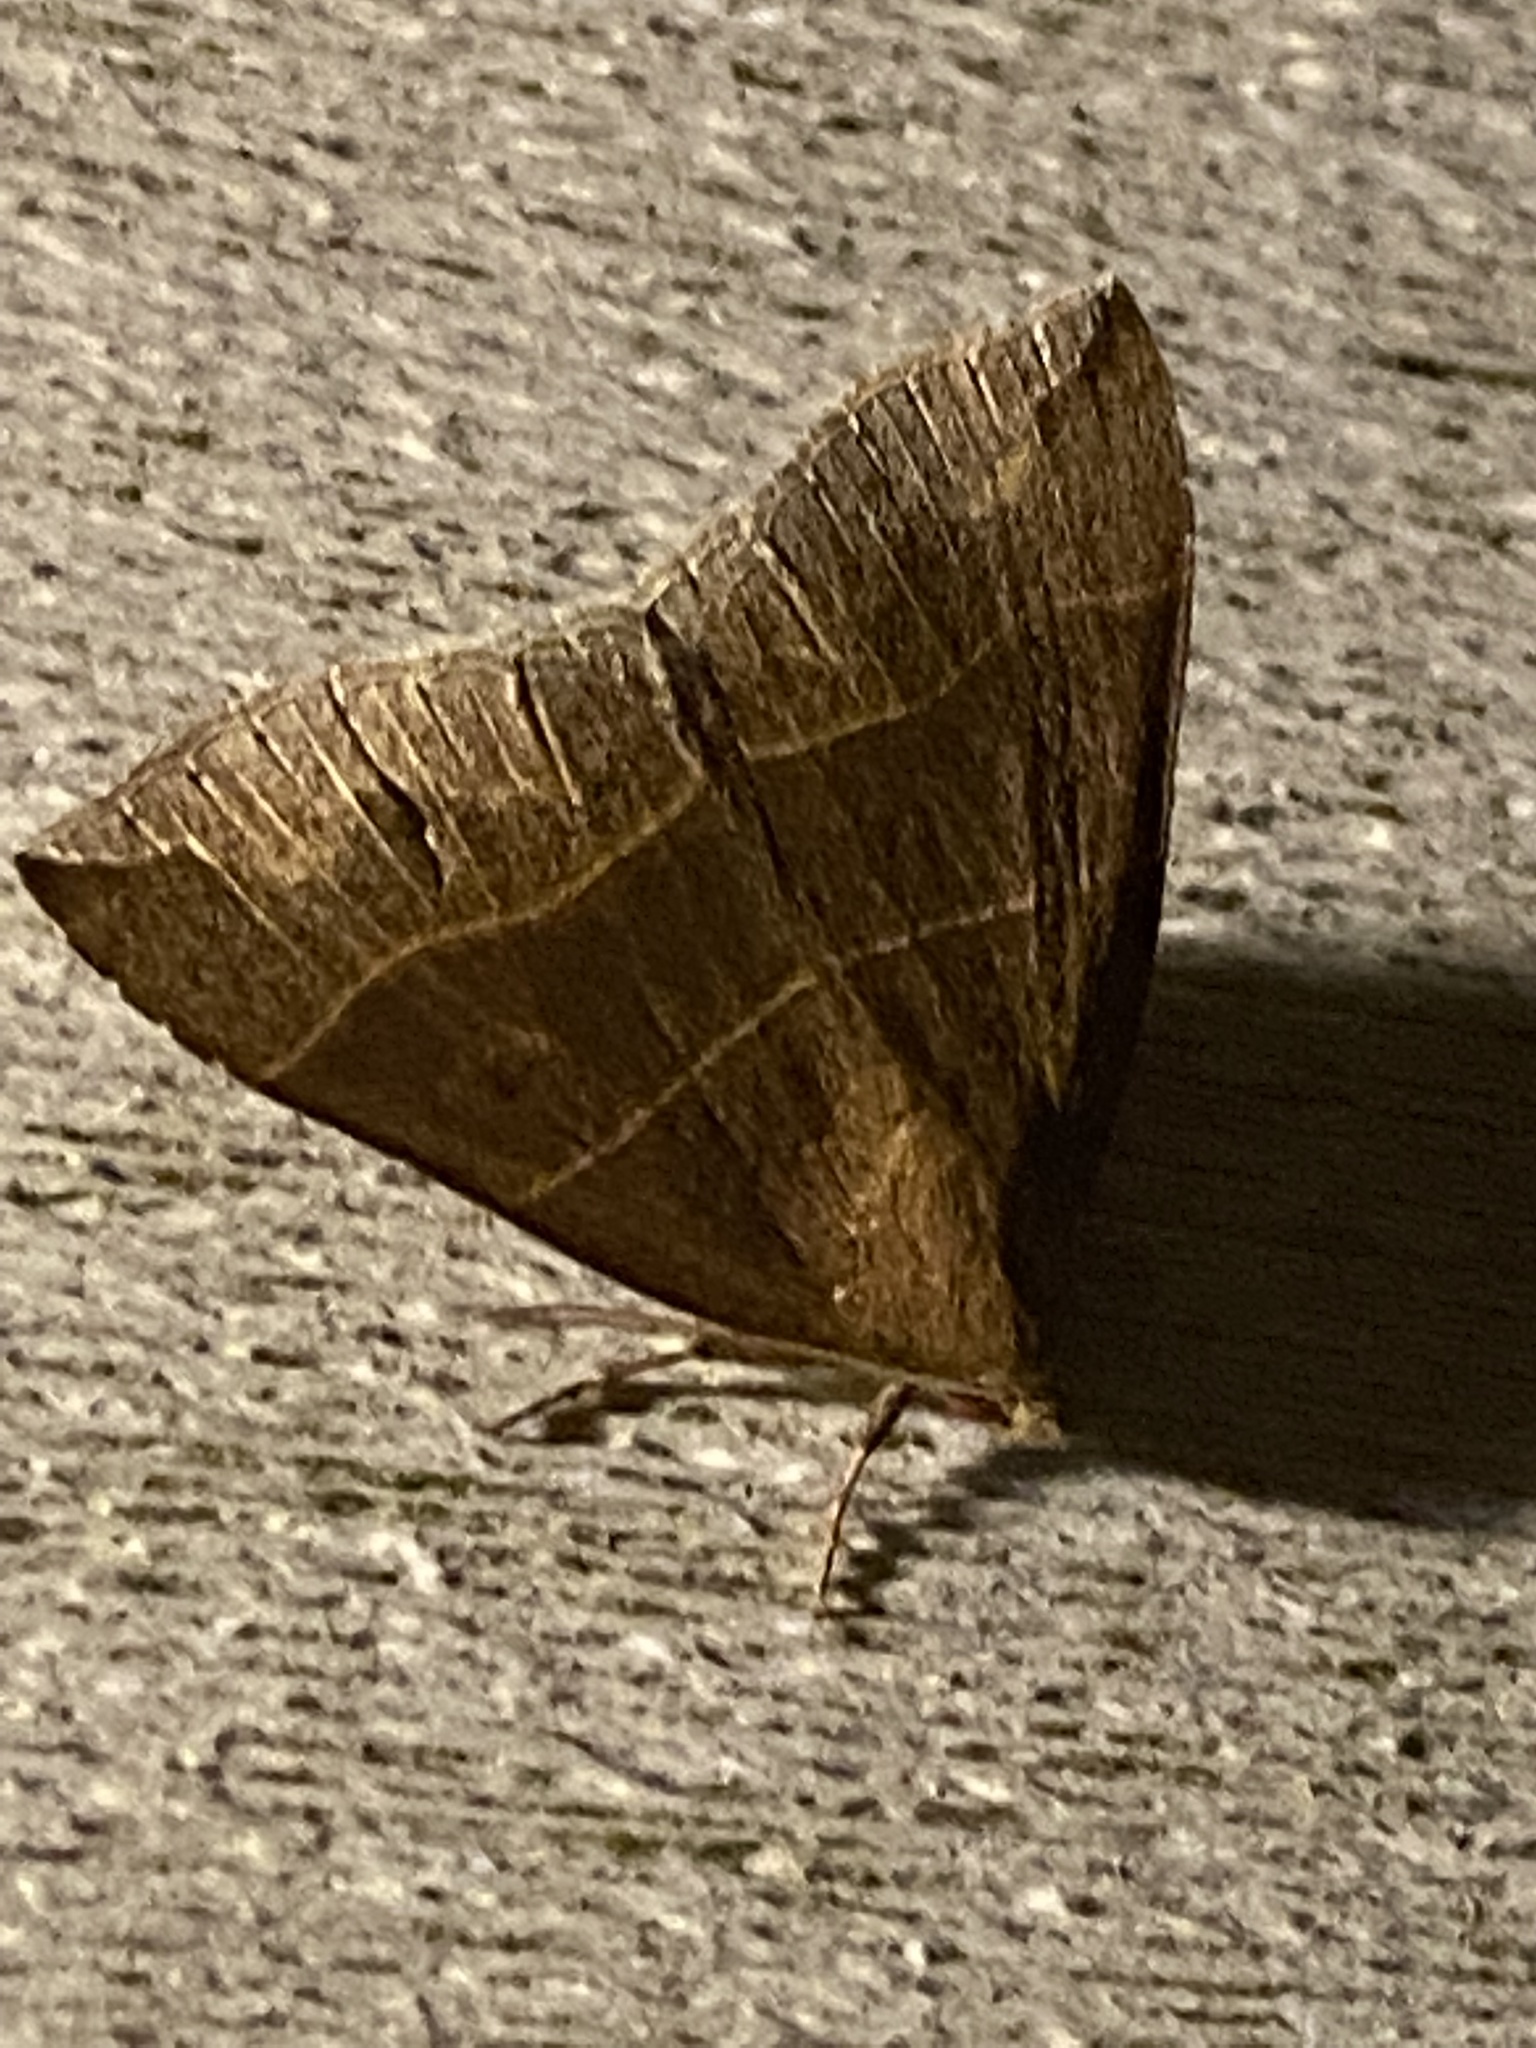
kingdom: Animalia
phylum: Arthropoda
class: Insecta
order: Lepidoptera
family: Erebidae
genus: Parallelia
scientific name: Parallelia bistriaris
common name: Maple looper moth
